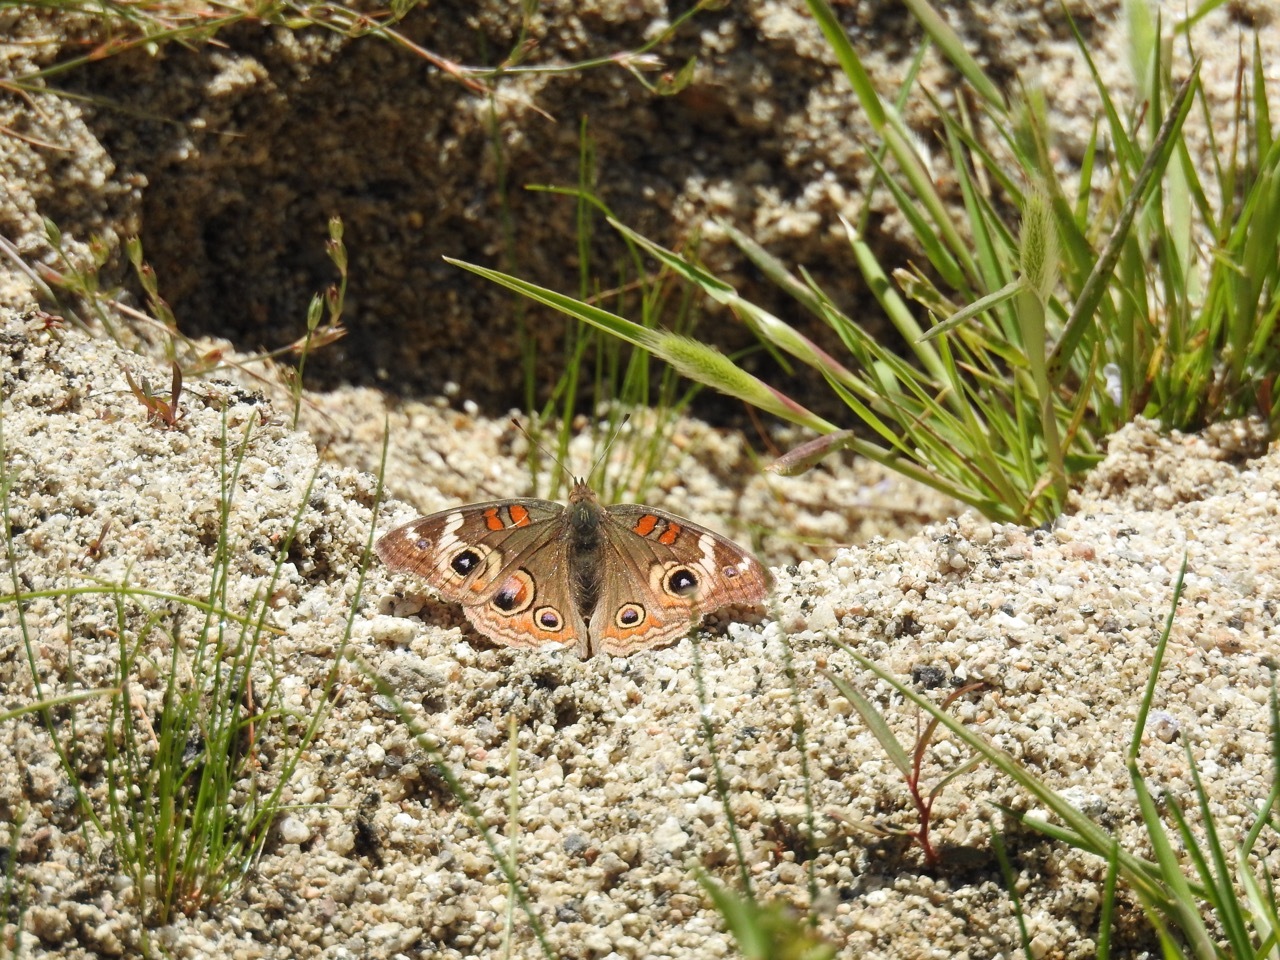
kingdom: Animalia
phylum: Arthropoda
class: Insecta
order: Lepidoptera
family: Nymphalidae
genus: Junonia
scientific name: Junonia grisea
